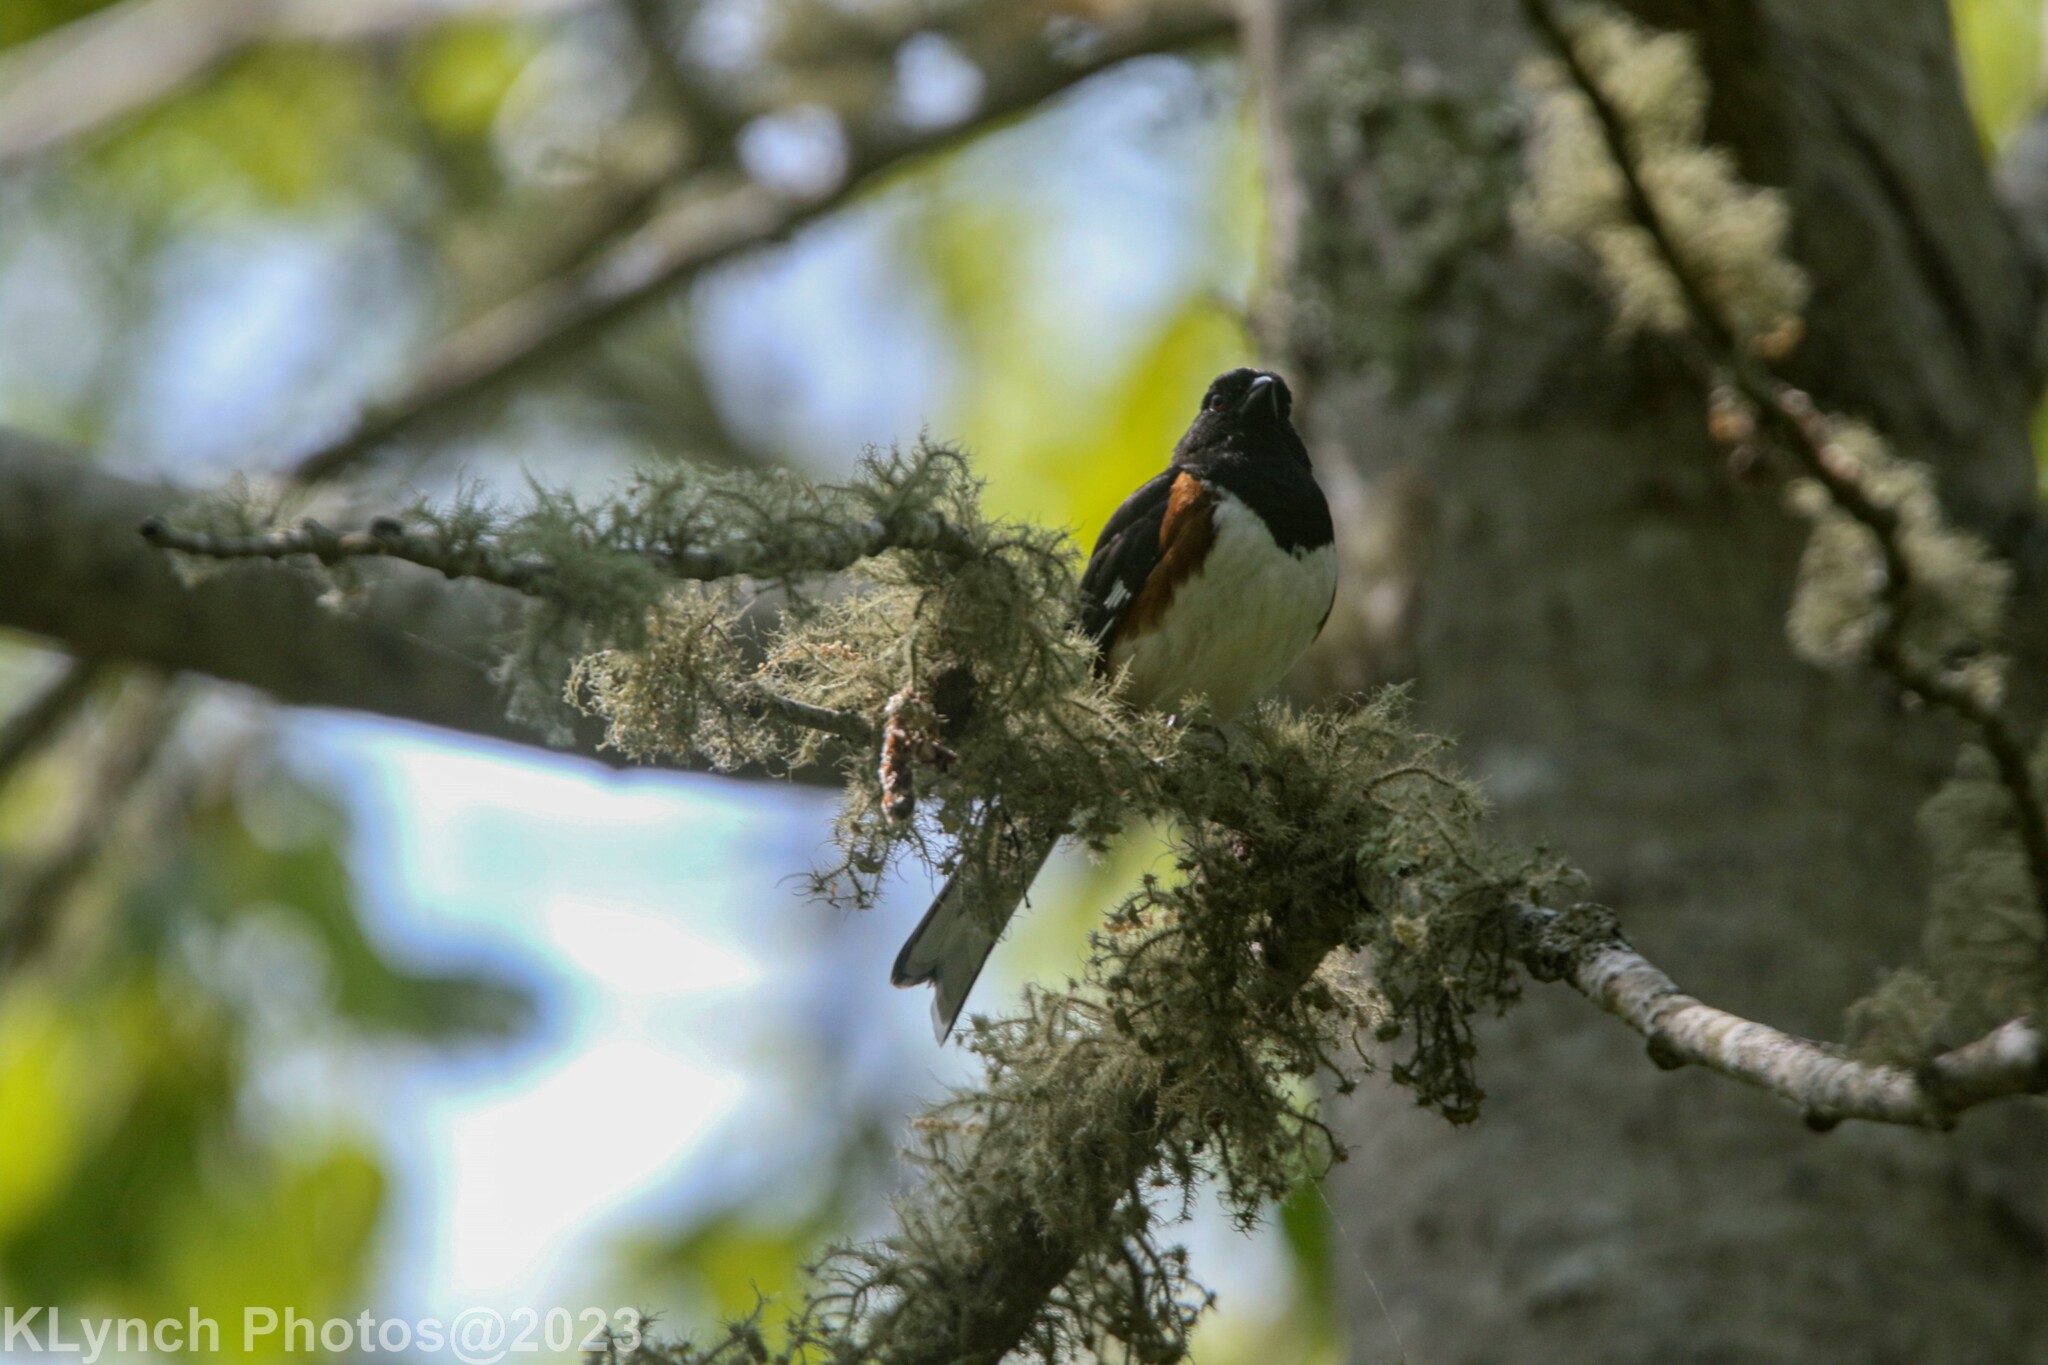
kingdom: Animalia
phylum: Chordata
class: Aves
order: Passeriformes
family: Passerellidae
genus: Pipilo
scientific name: Pipilo erythrophthalmus
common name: Eastern towhee
